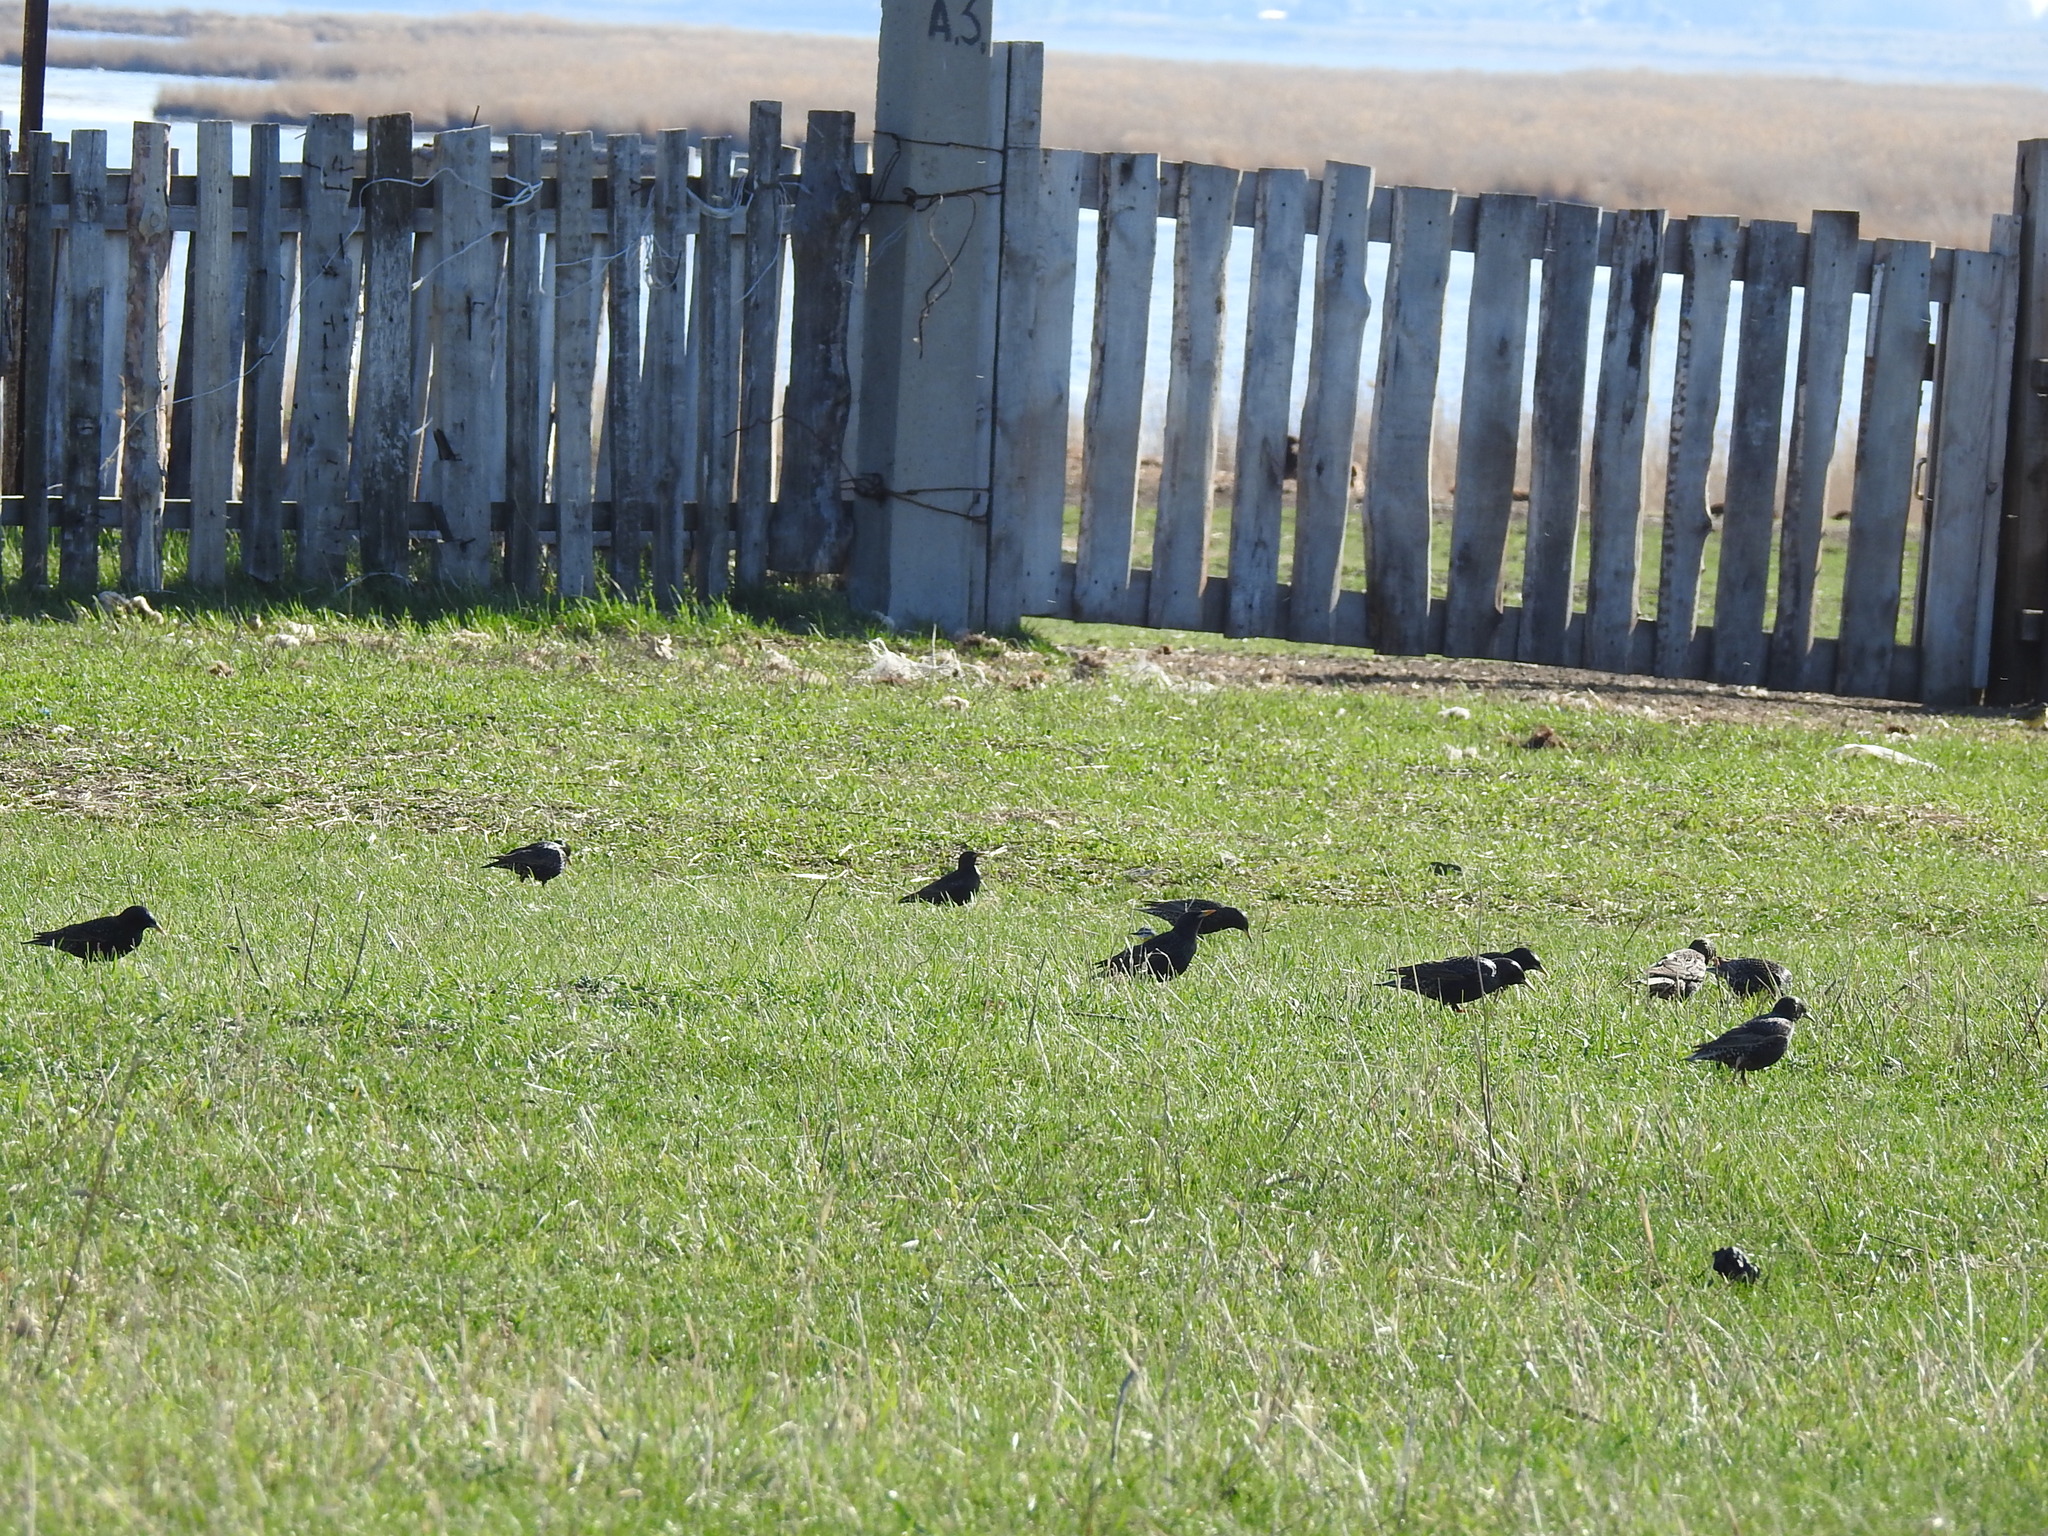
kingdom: Animalia
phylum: Chordata
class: Aves
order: Passeriformes
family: Sturnidae
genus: Sturnus
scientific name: Sturnus vulgaris
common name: Common starling
